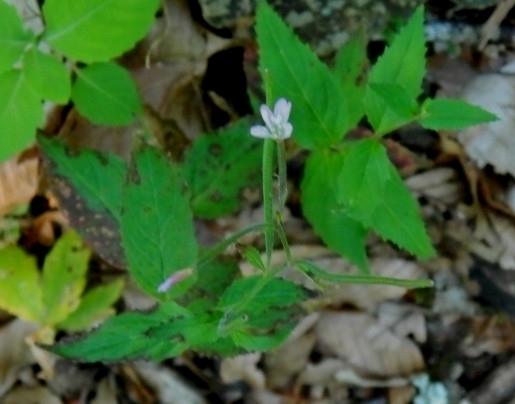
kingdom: Plantae
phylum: Tracheophyta
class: Magnoliopsida
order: Myrtales
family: Onagraceae
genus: Epilobium
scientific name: Epilobium montanum
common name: Broad-leaved willowherb
